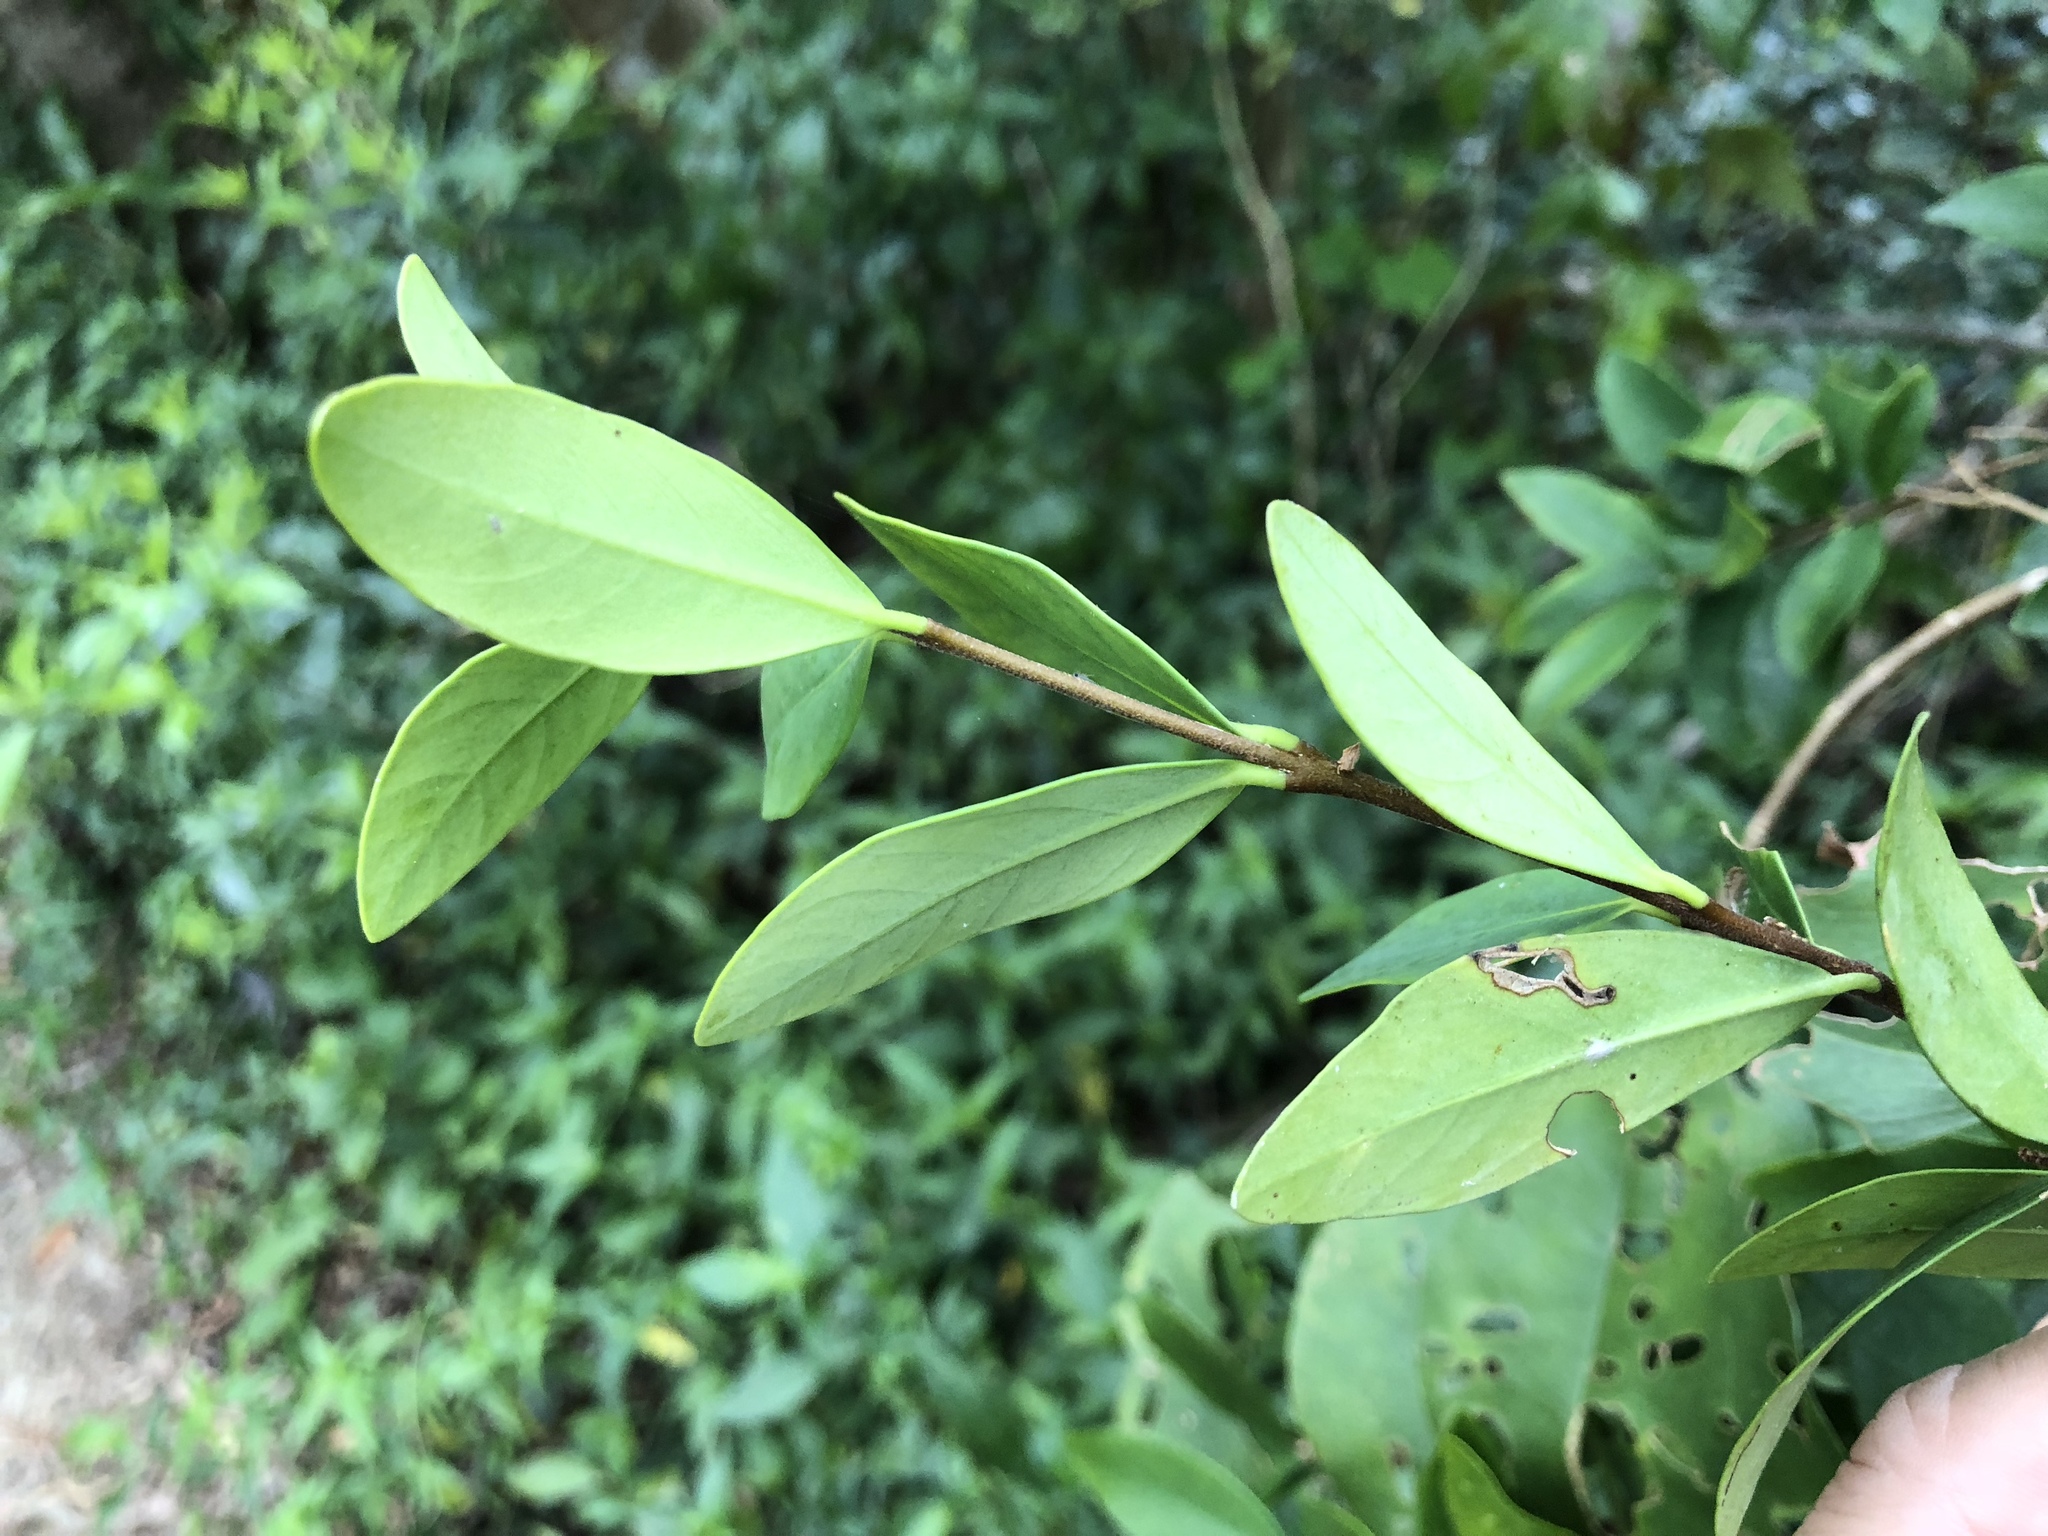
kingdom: Plantae
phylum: Tracheophyta
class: Magnoliopsida
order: Malvales
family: Thymelaeaceae
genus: Wikstroemia
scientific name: Wikstroemia taiwanensis
